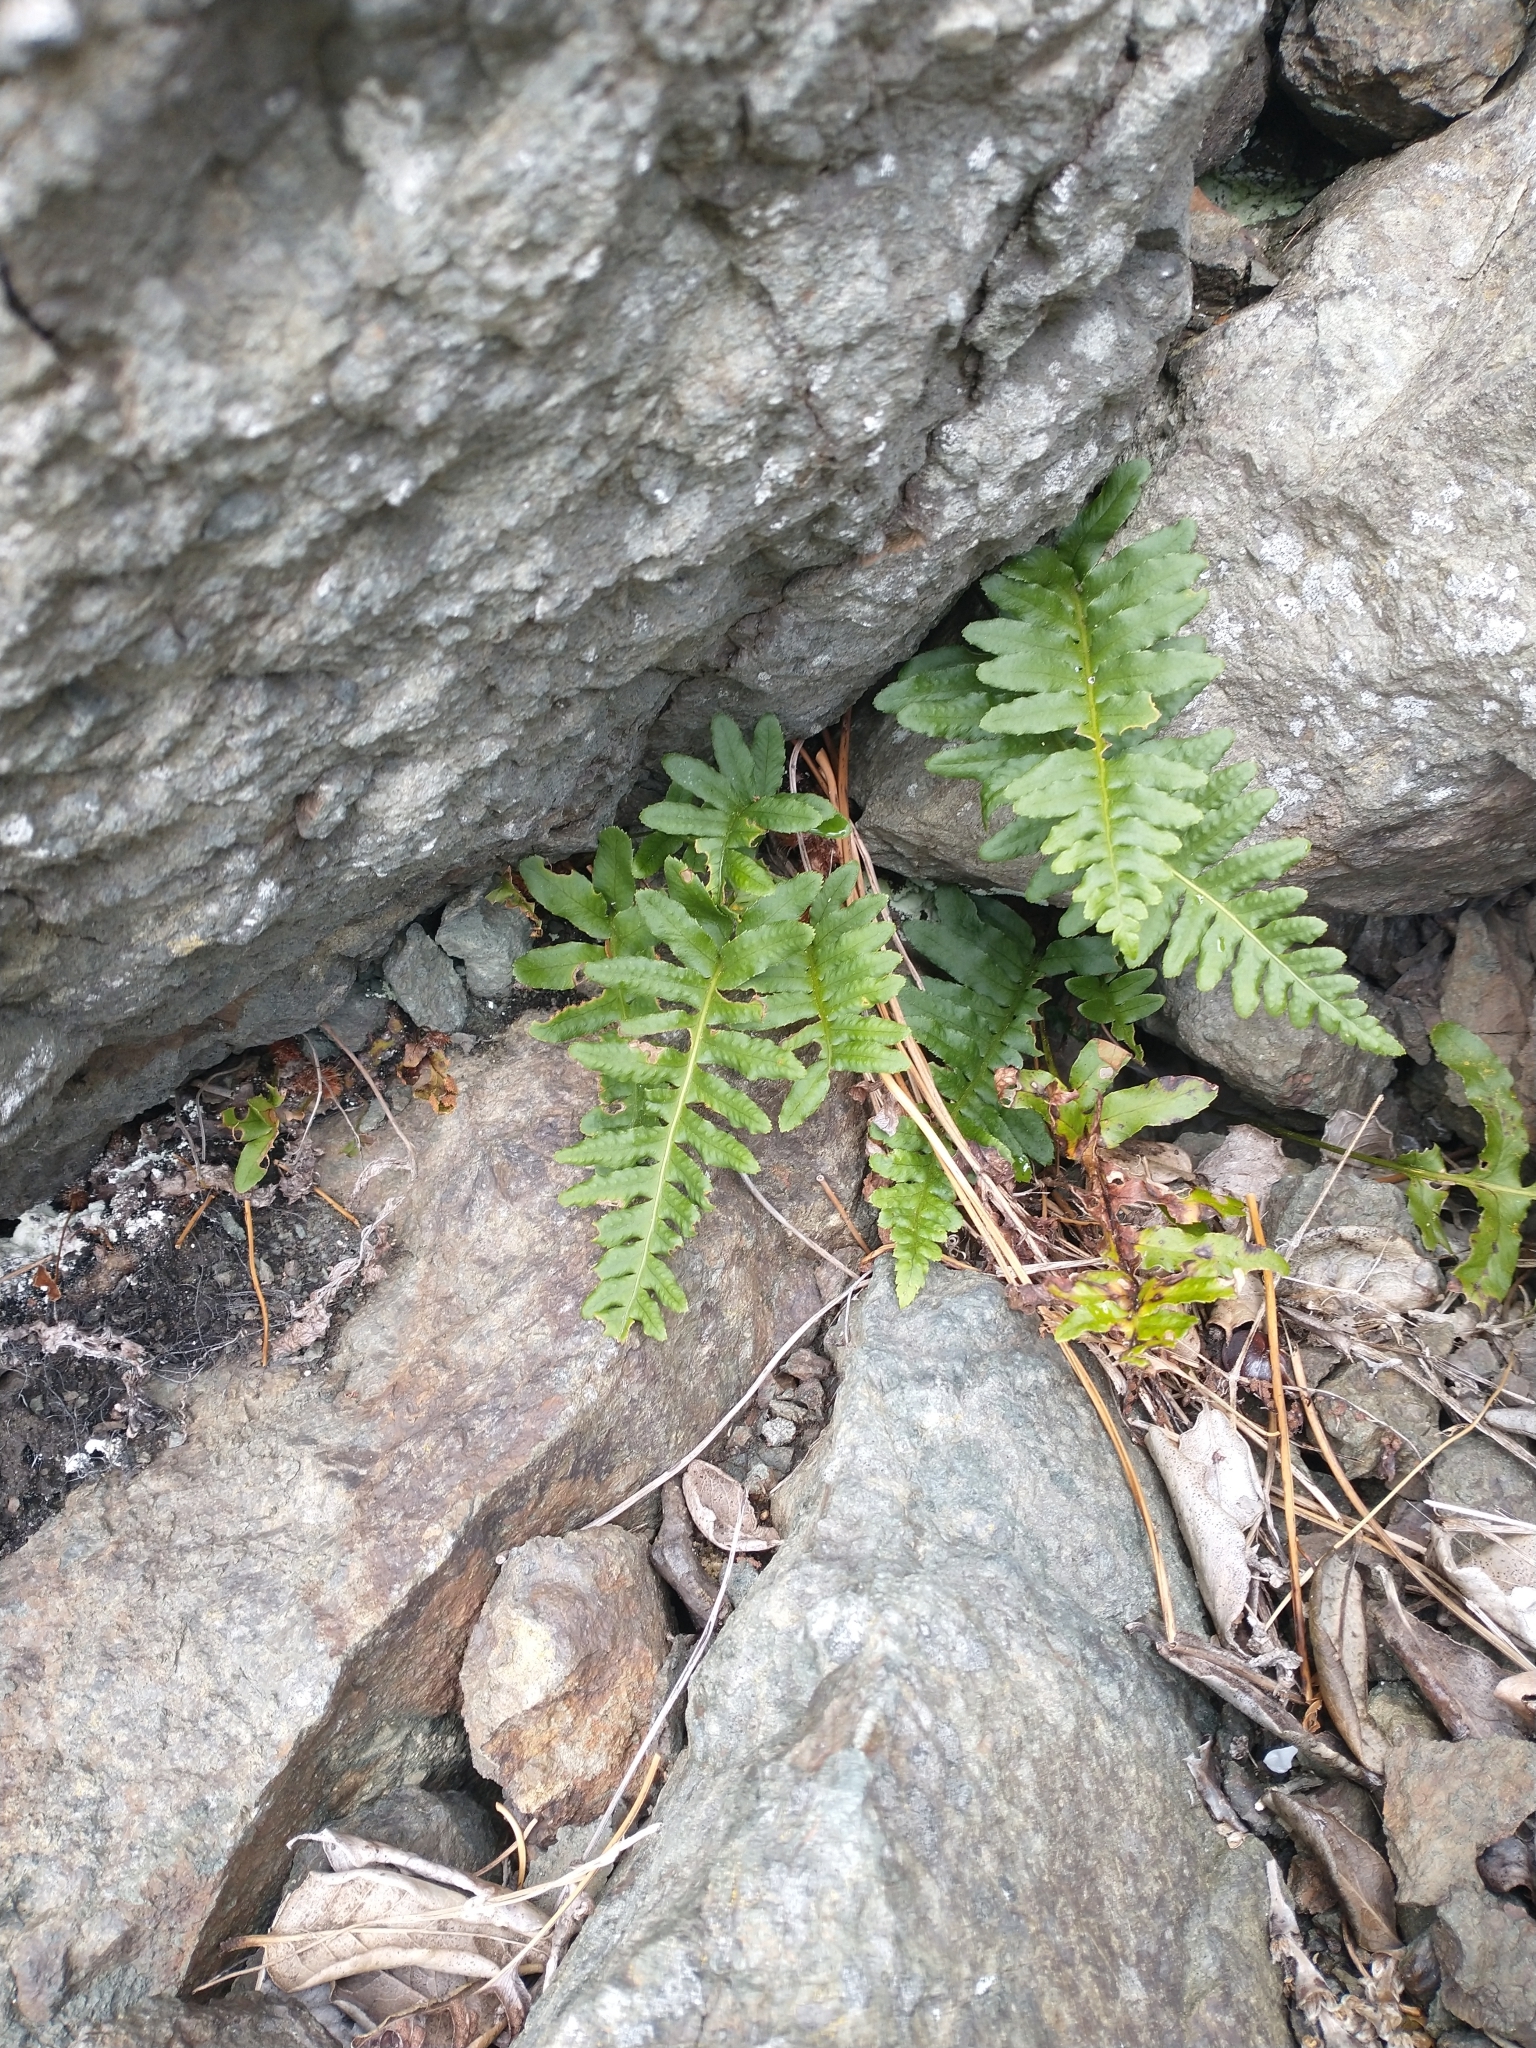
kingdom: Plantae
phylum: Tracheophyta
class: Polypodiopsida
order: Polypodiales
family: Polypodiaceae
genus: Polypodium
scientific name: Polypodium calirhiza
